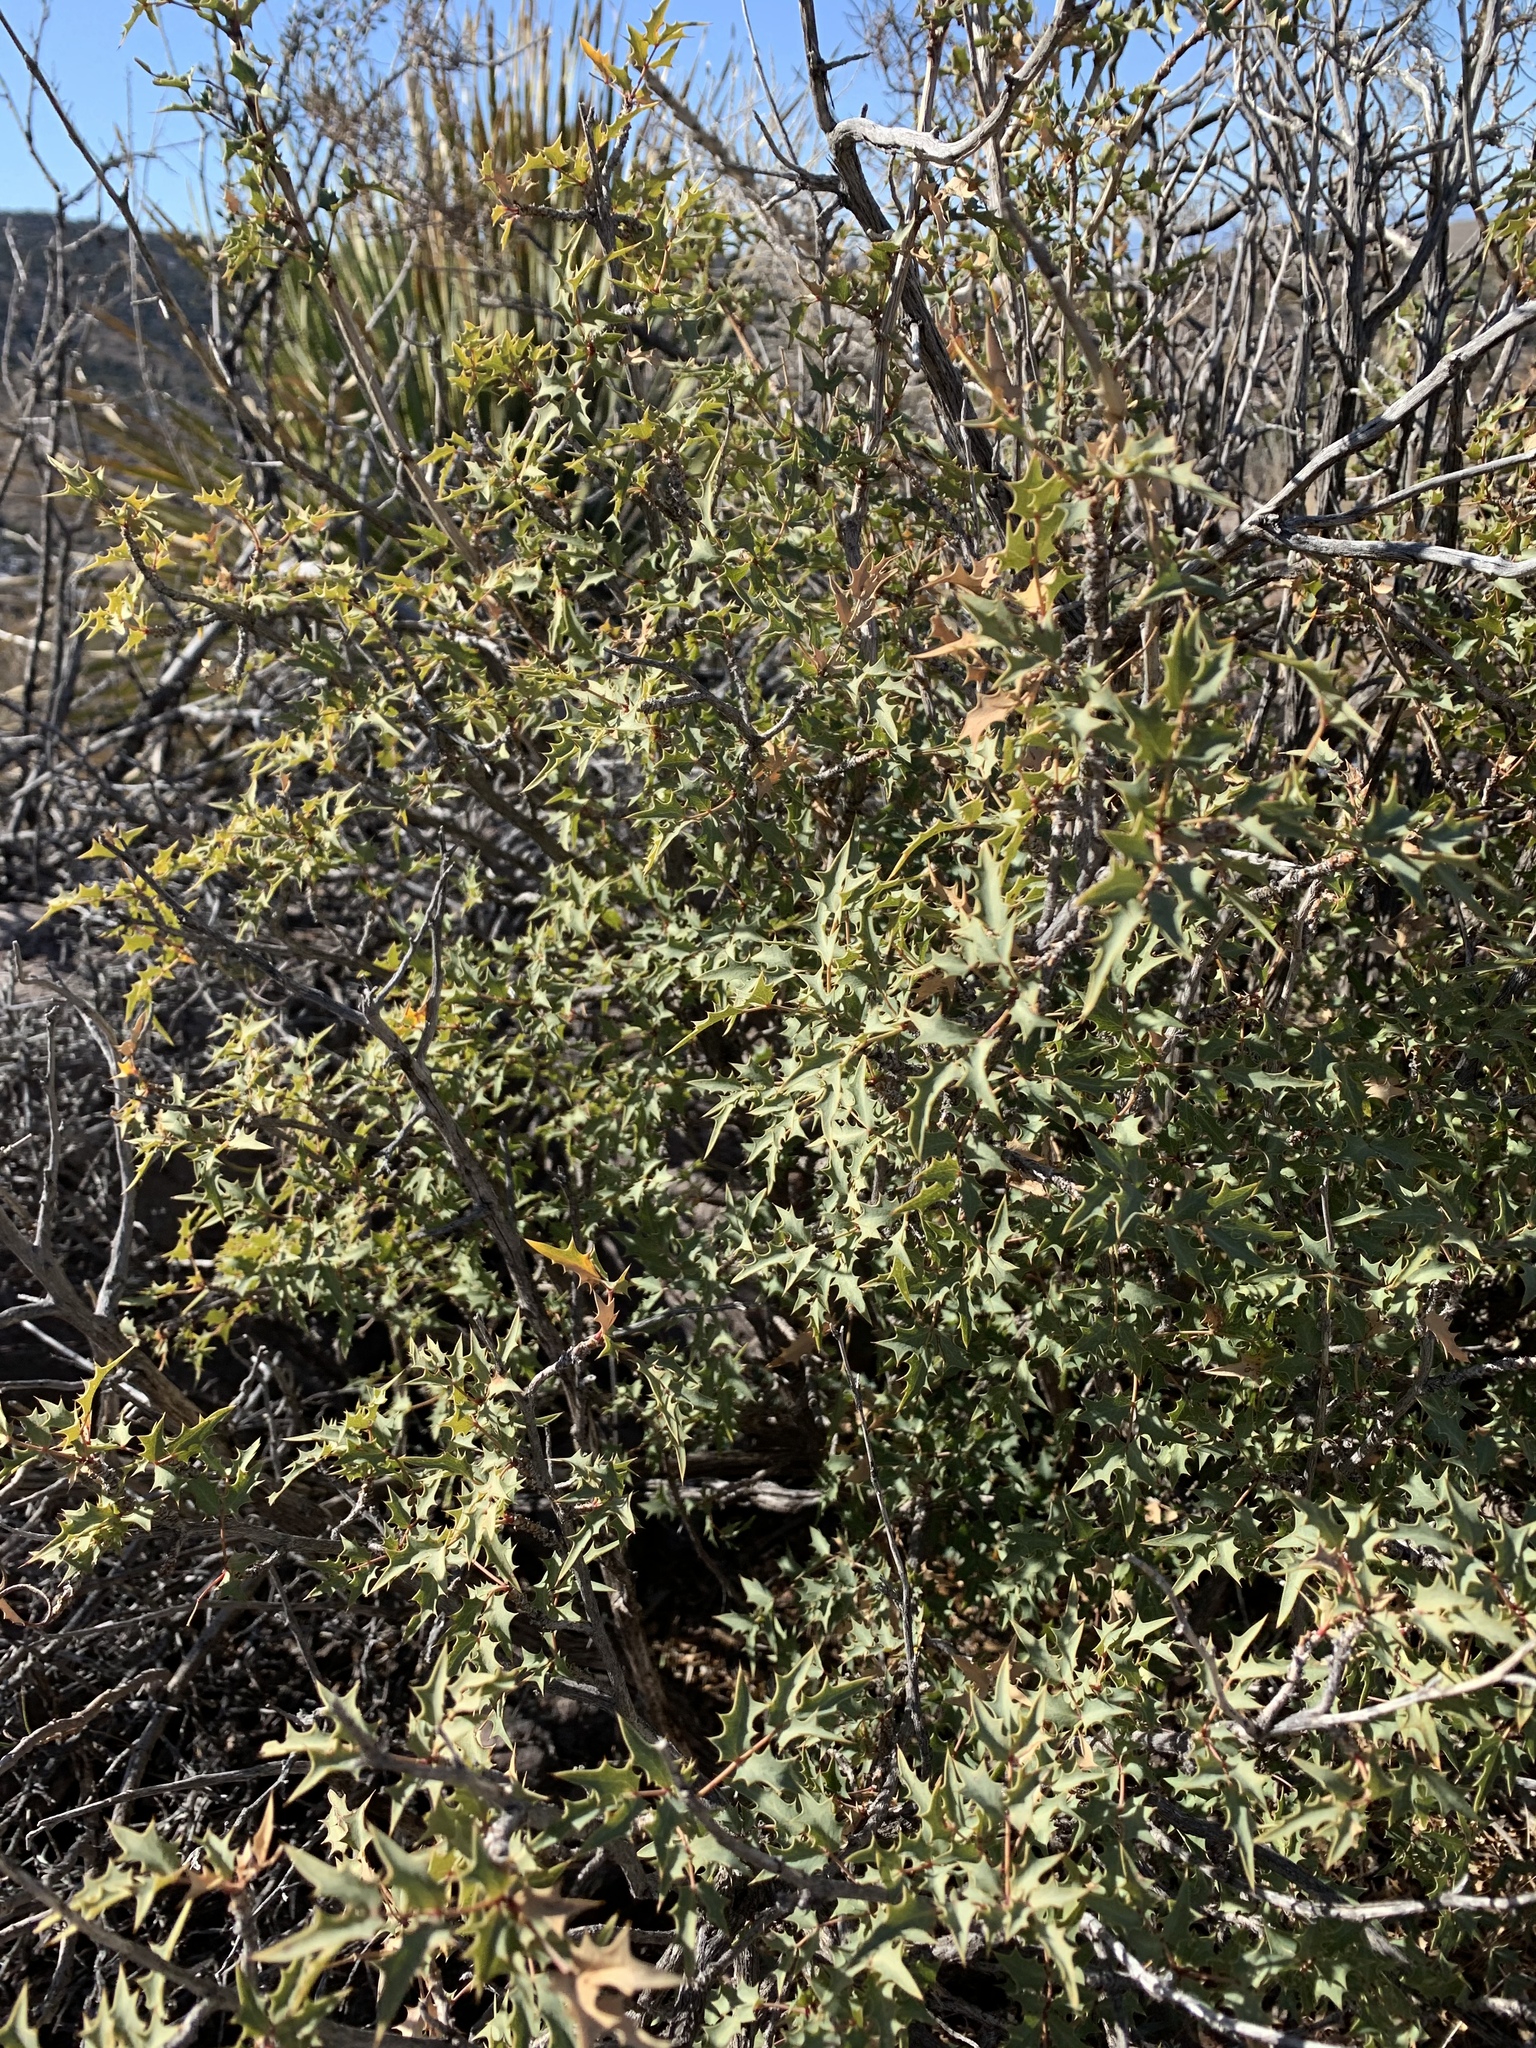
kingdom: Plantae
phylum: Tracheophyta
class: Magnoliopsida
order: Ranunculales
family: Berberidaceae
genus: Alloberberis
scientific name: Alloberberis haematocarpa
